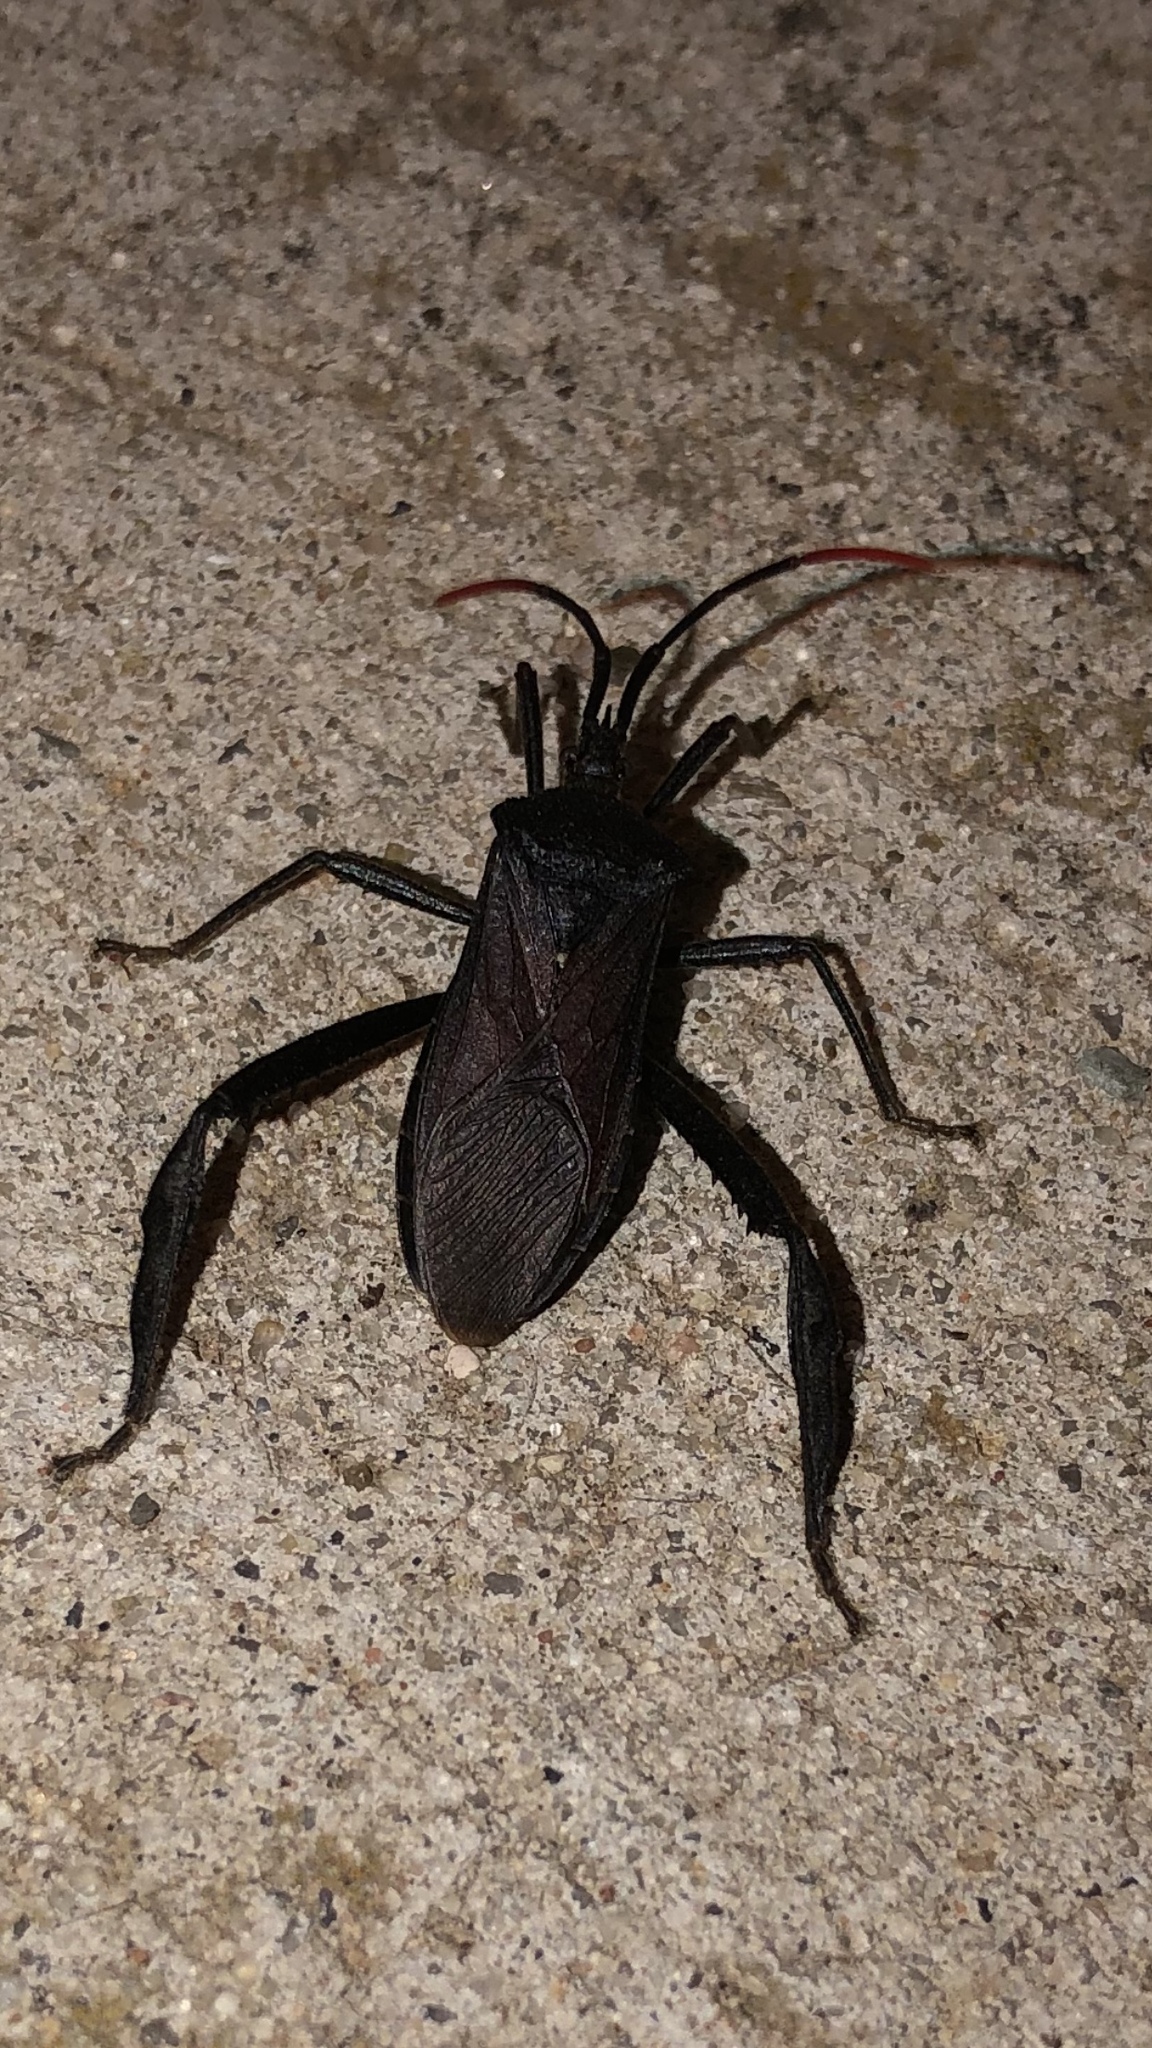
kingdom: Animalia
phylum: Arthropoda
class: Insecta
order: Hemiptera
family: Coreidae
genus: Acanthocephala
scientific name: Acanthocephala terminalis
